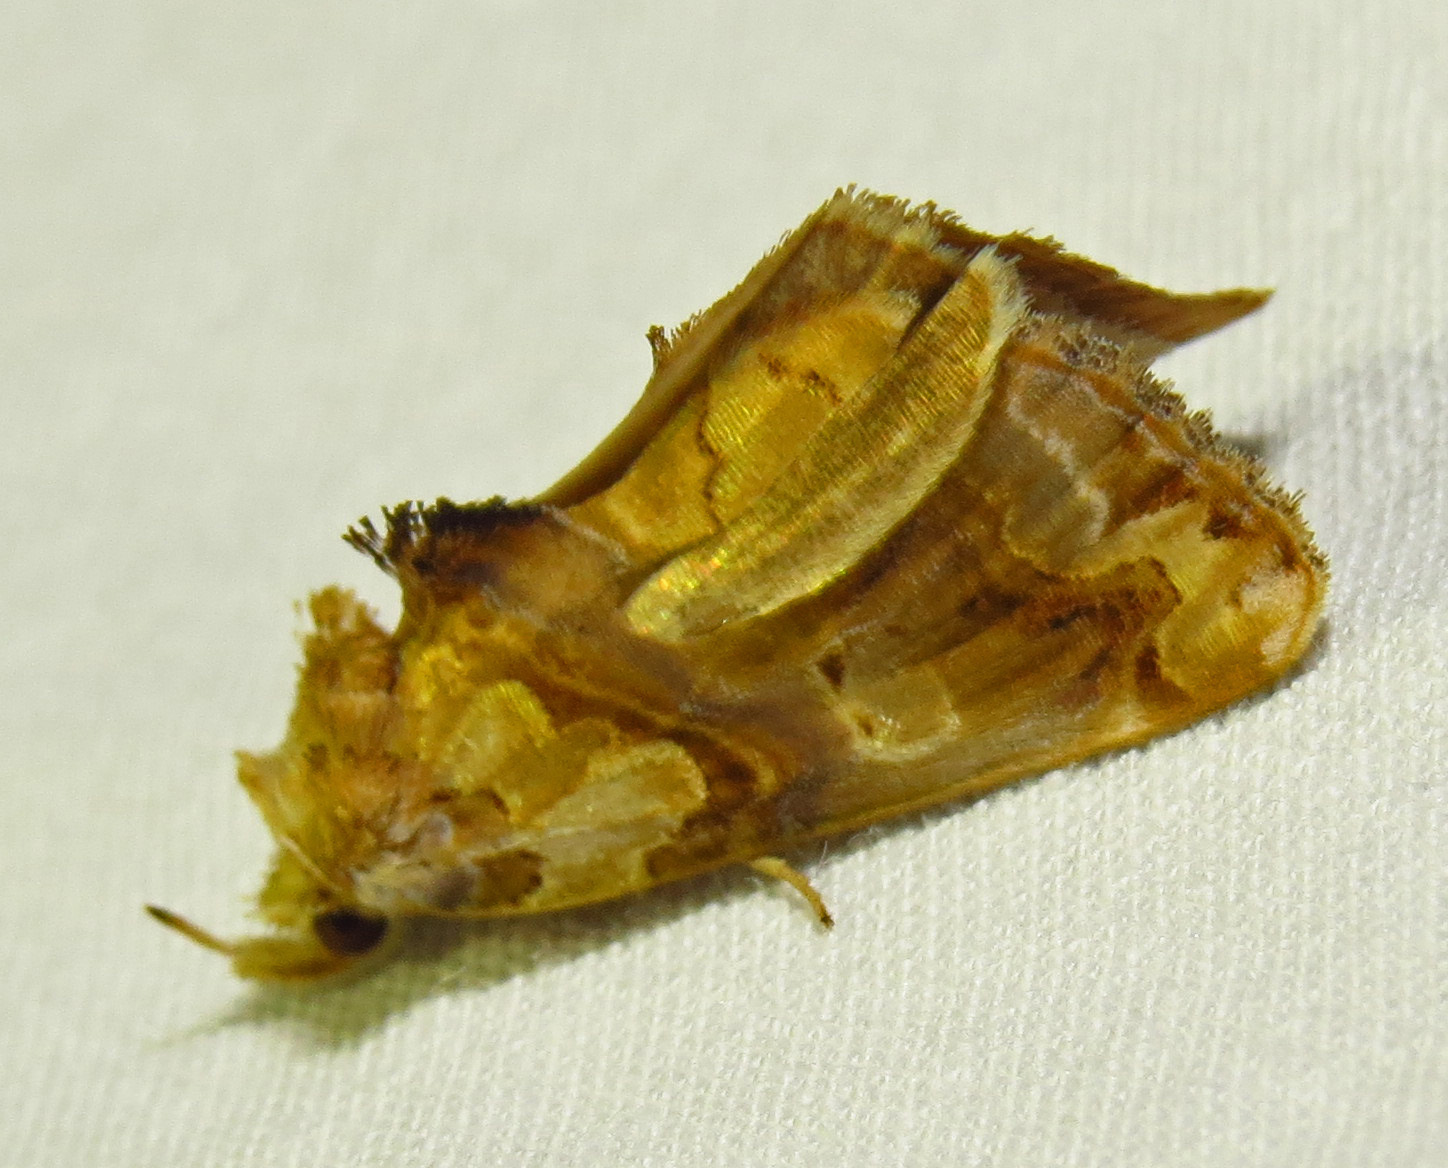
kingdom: Animalia
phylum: Arthropoda
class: Insecta
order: Lepidoptera
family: Erebidae
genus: Plusiodonta
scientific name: Plusiodonta compressipalpis
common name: Moonseed moth
